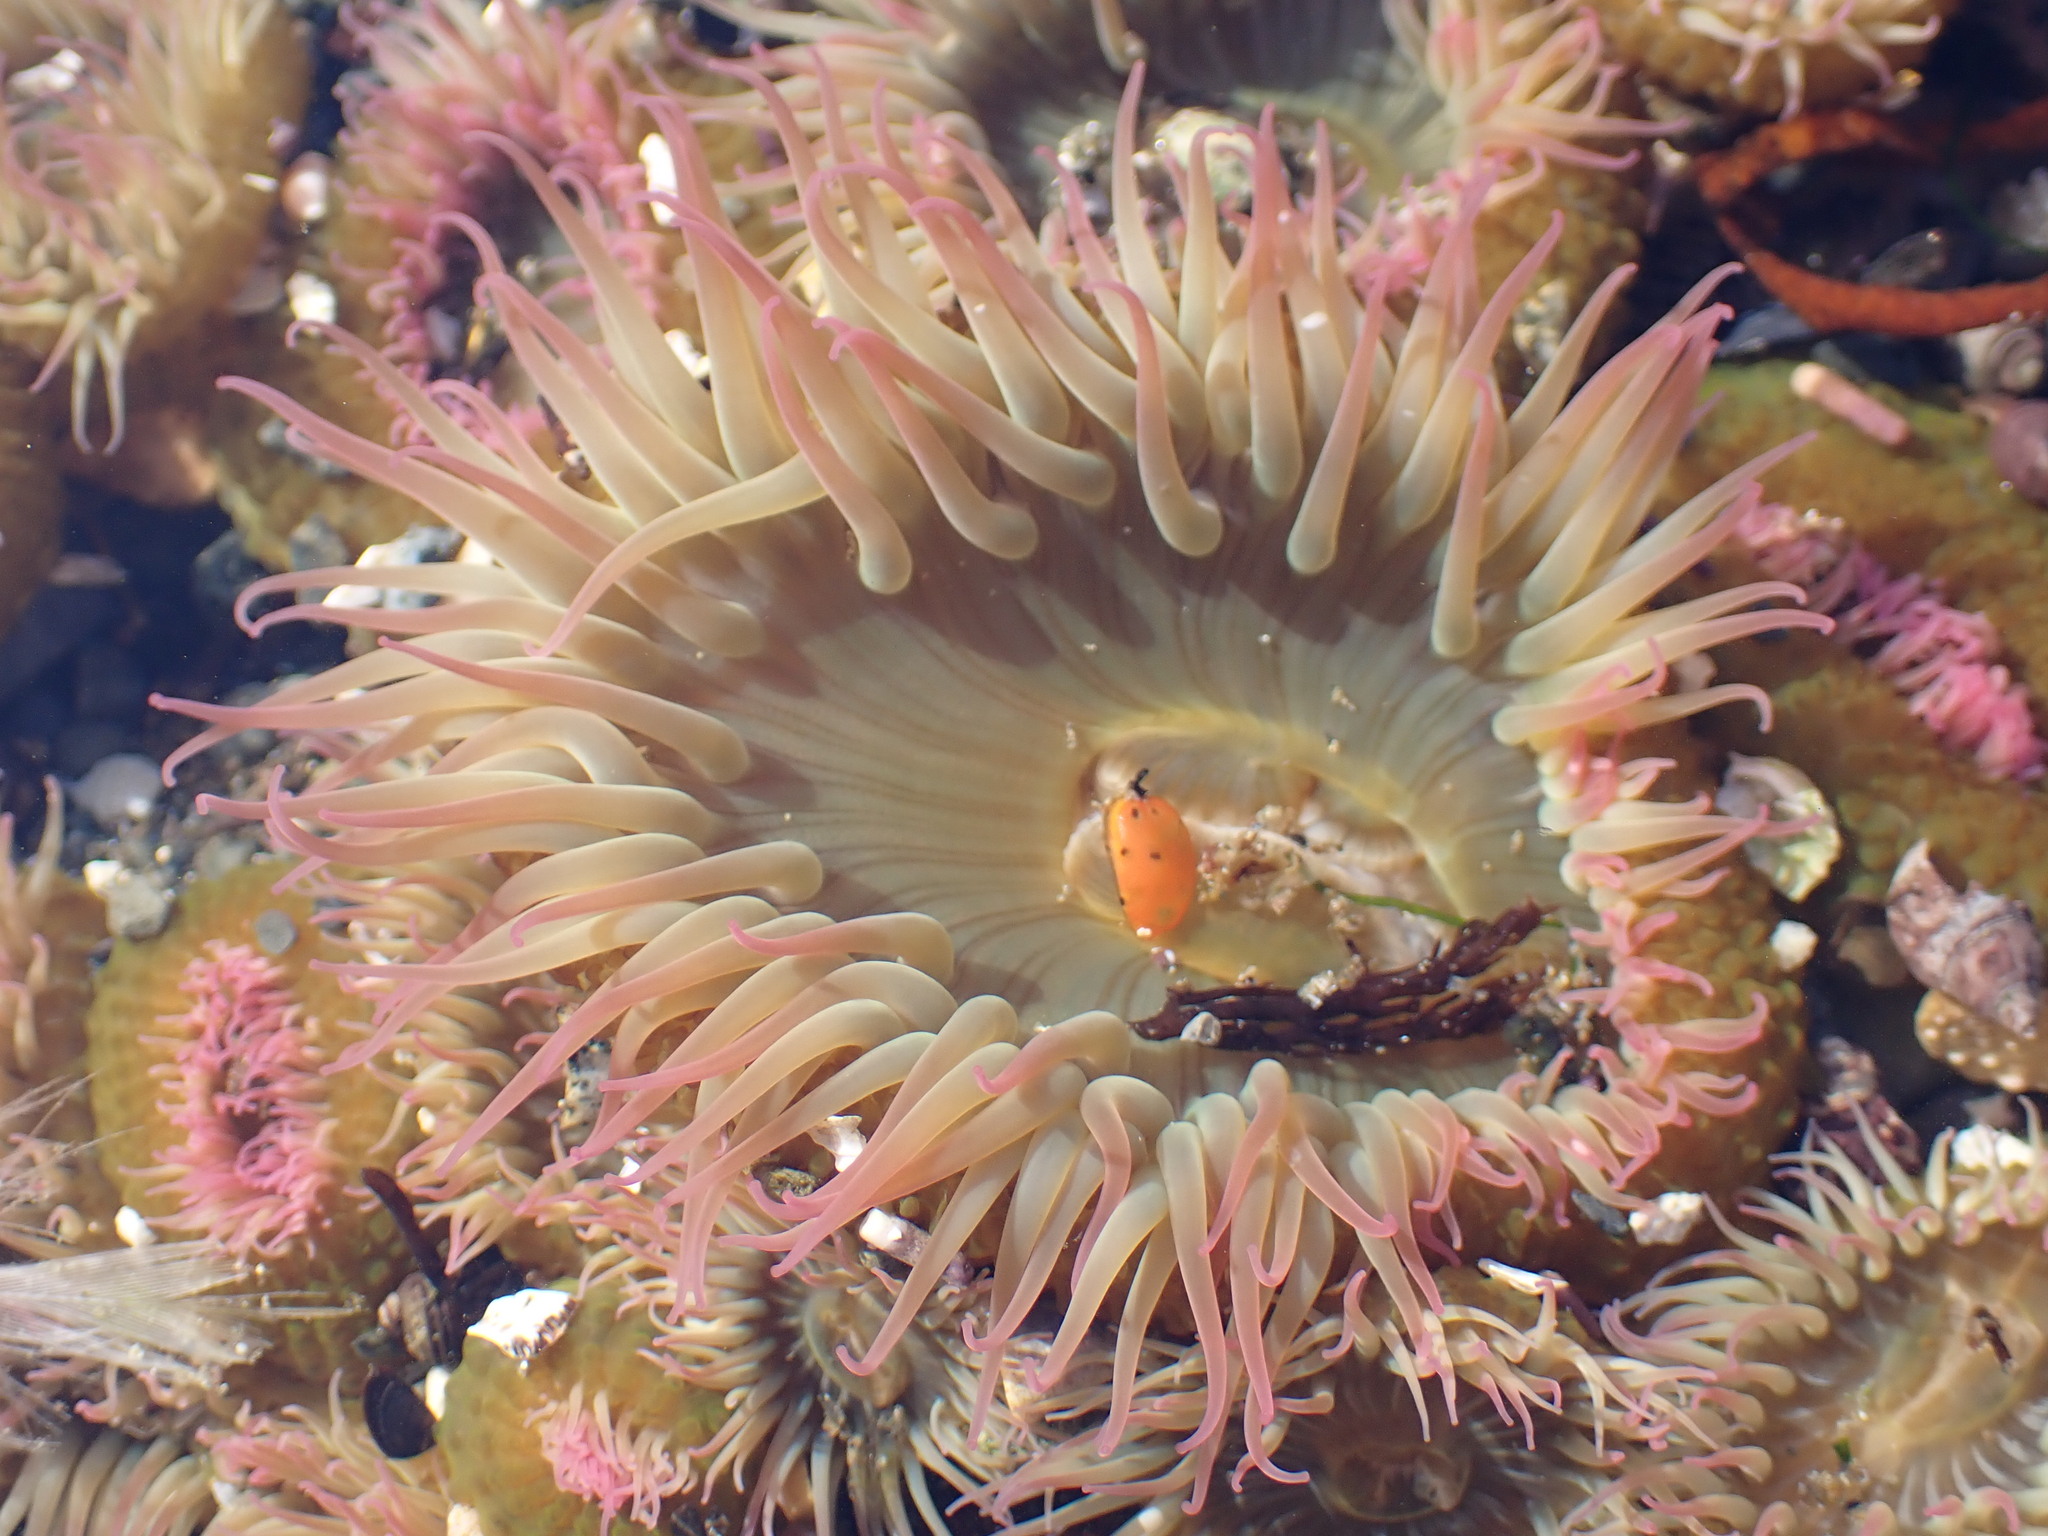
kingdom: Animalia
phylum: Cnidaria
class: Anthozoa
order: Actiniaria
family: Actiniidae
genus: Anthopleura
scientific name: Anthopleura elegantissima
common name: Clonal anemone
